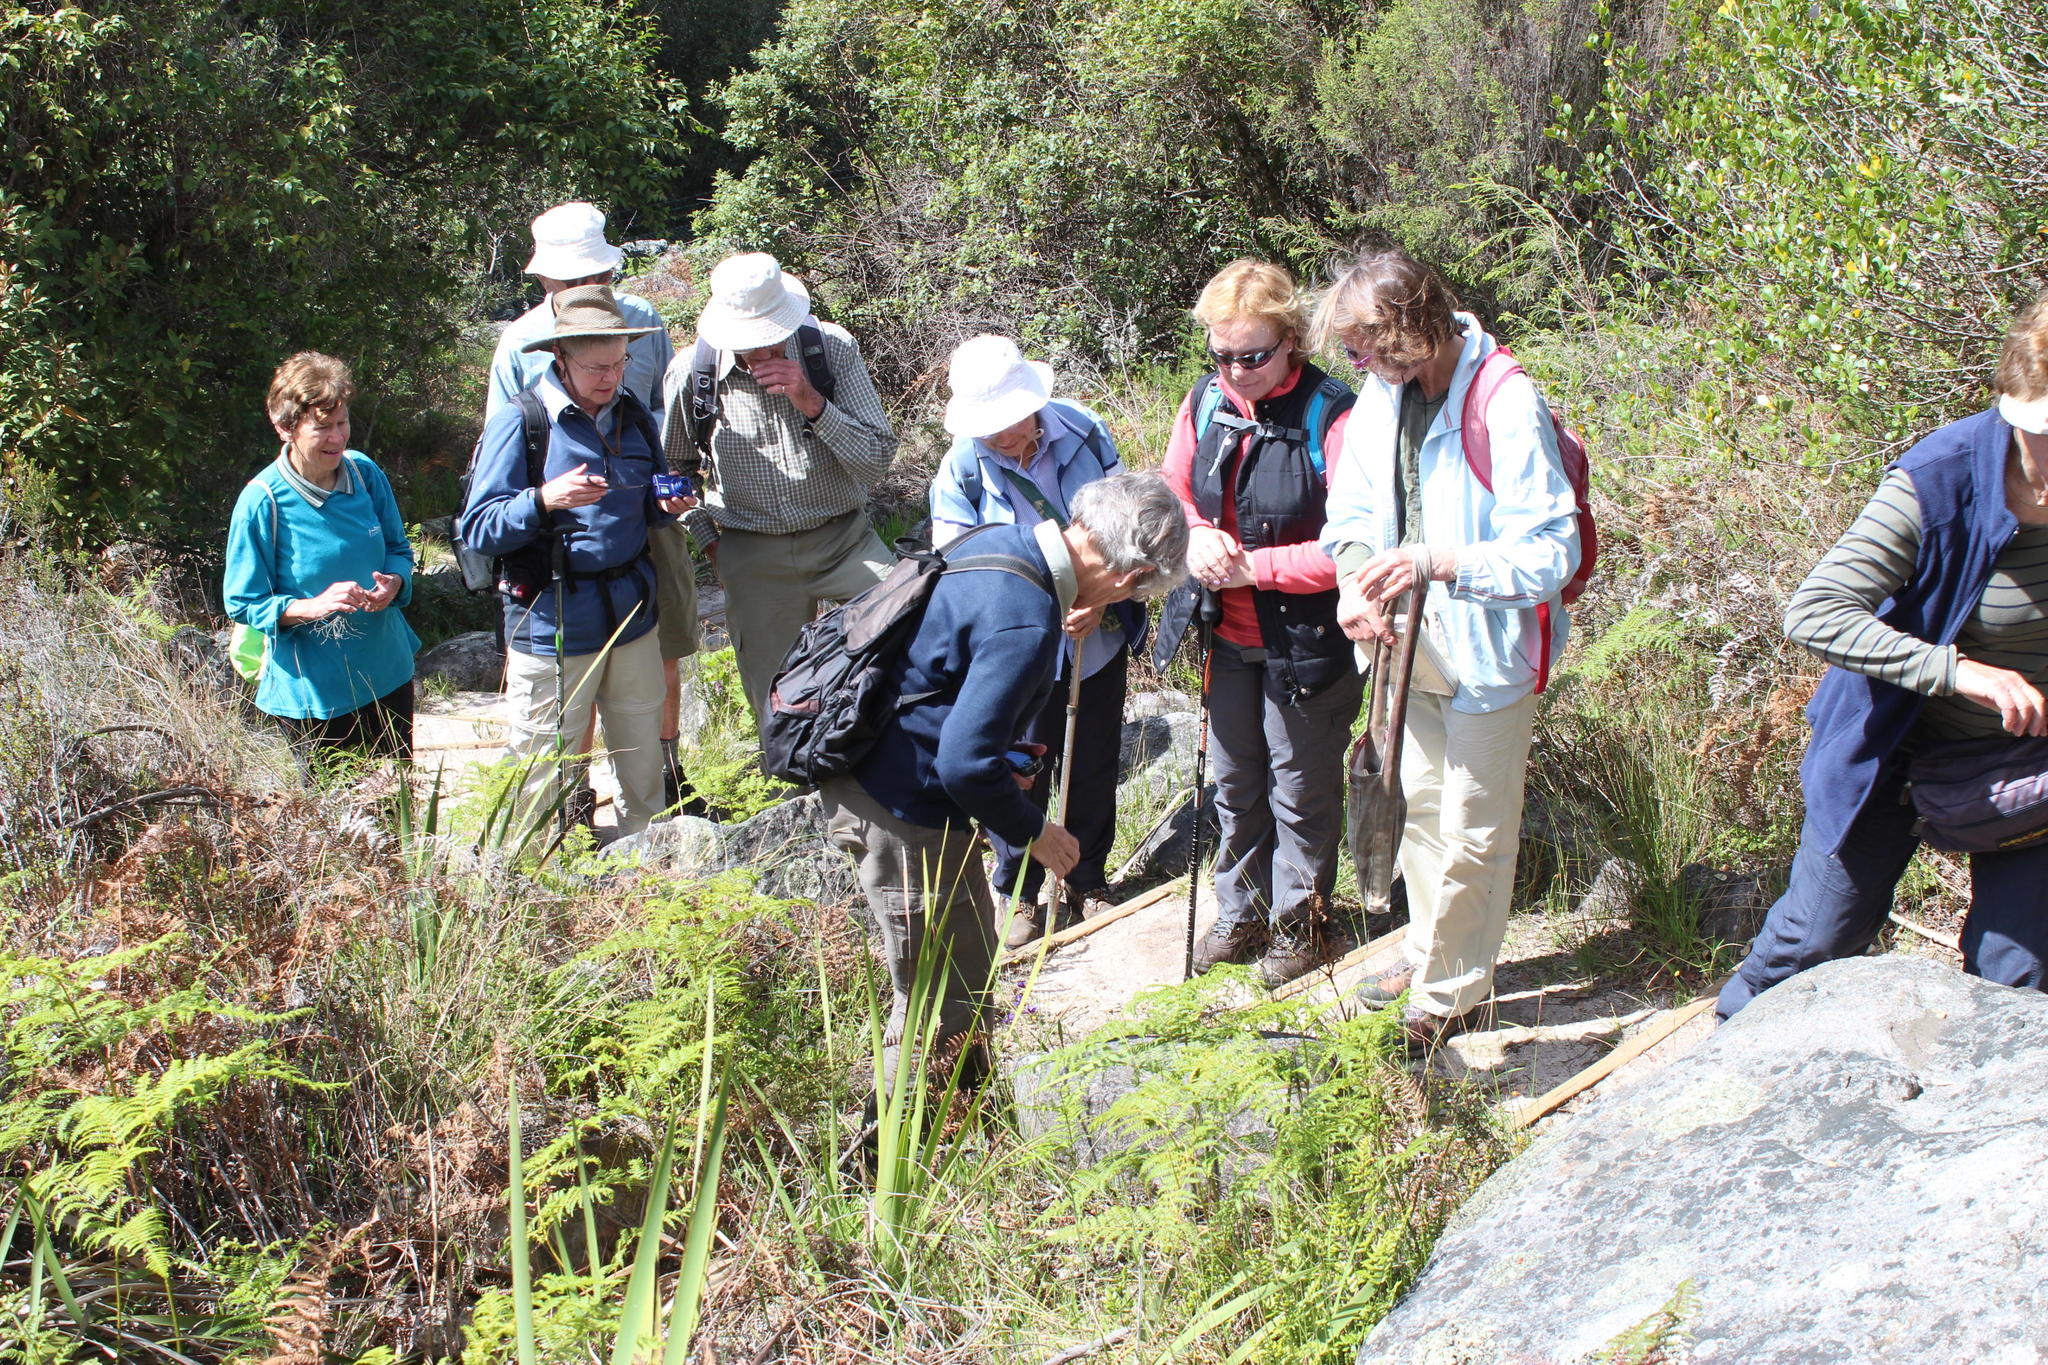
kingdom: Plantae
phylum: Tracheophyta
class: Liliopsida
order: Asparagales
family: Iridaceae
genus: Geissorhiza
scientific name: Geissorhiza monanthos
